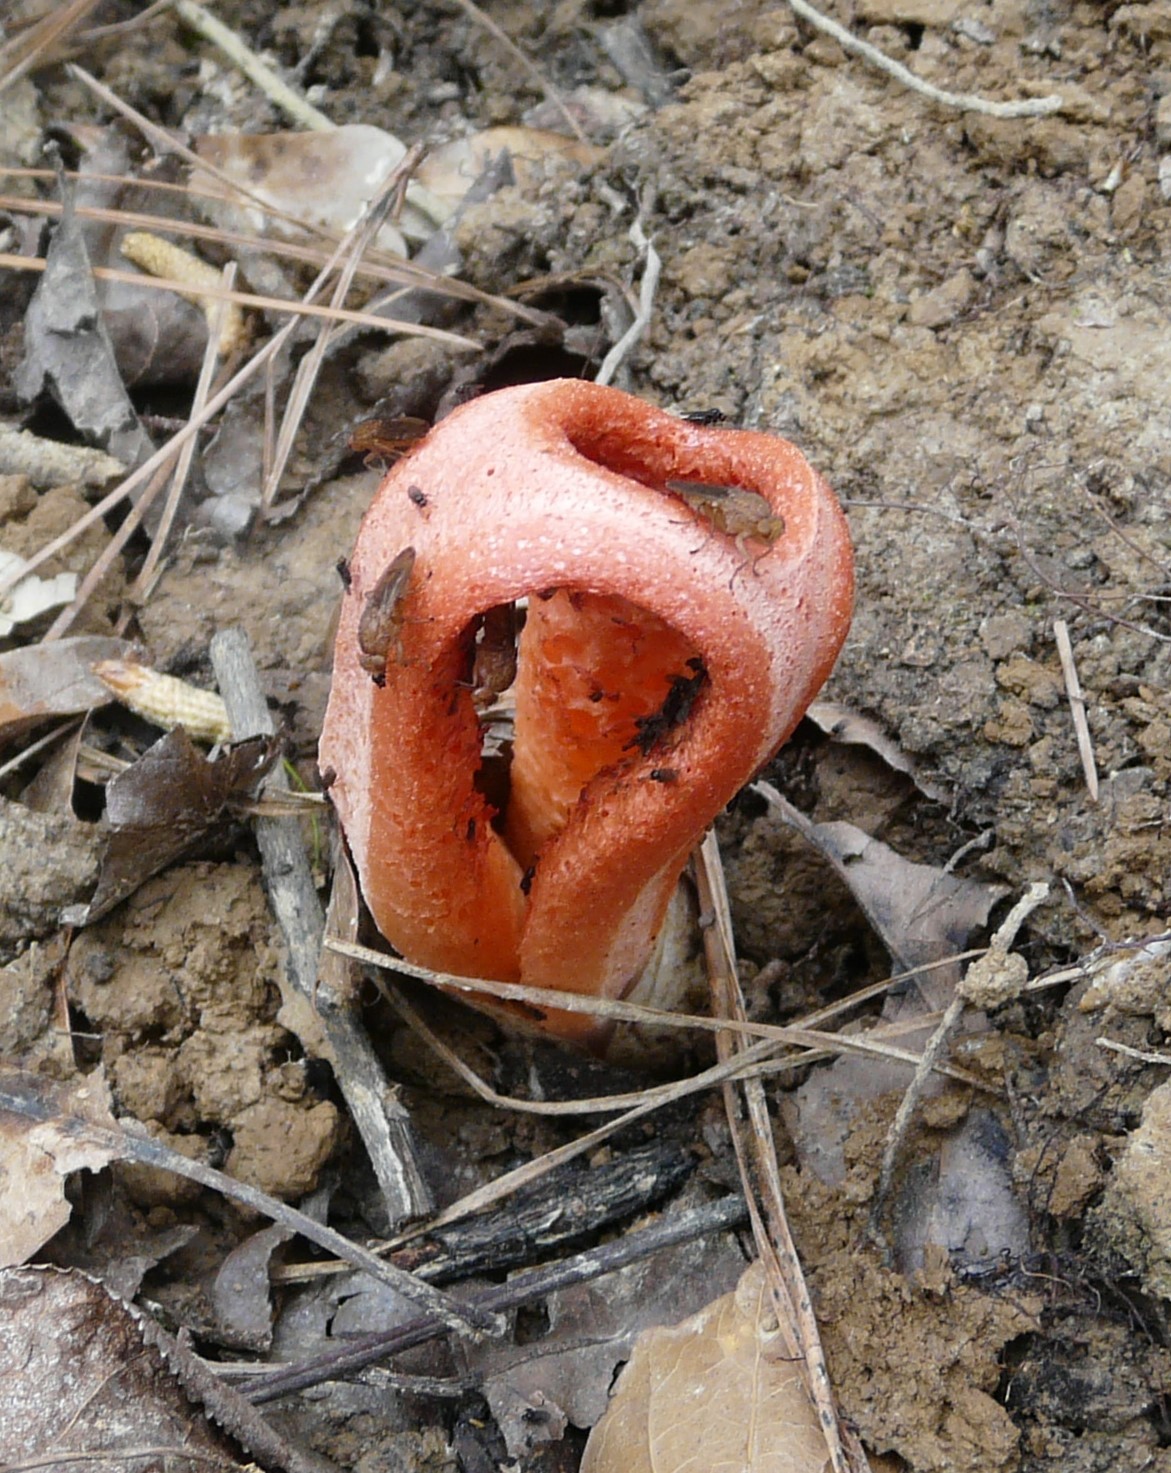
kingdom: Fungi
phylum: Basidiomycota
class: Agaricomycetes
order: Phallales
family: Phallaceae
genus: Clathrus
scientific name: Clathrus columnatus
